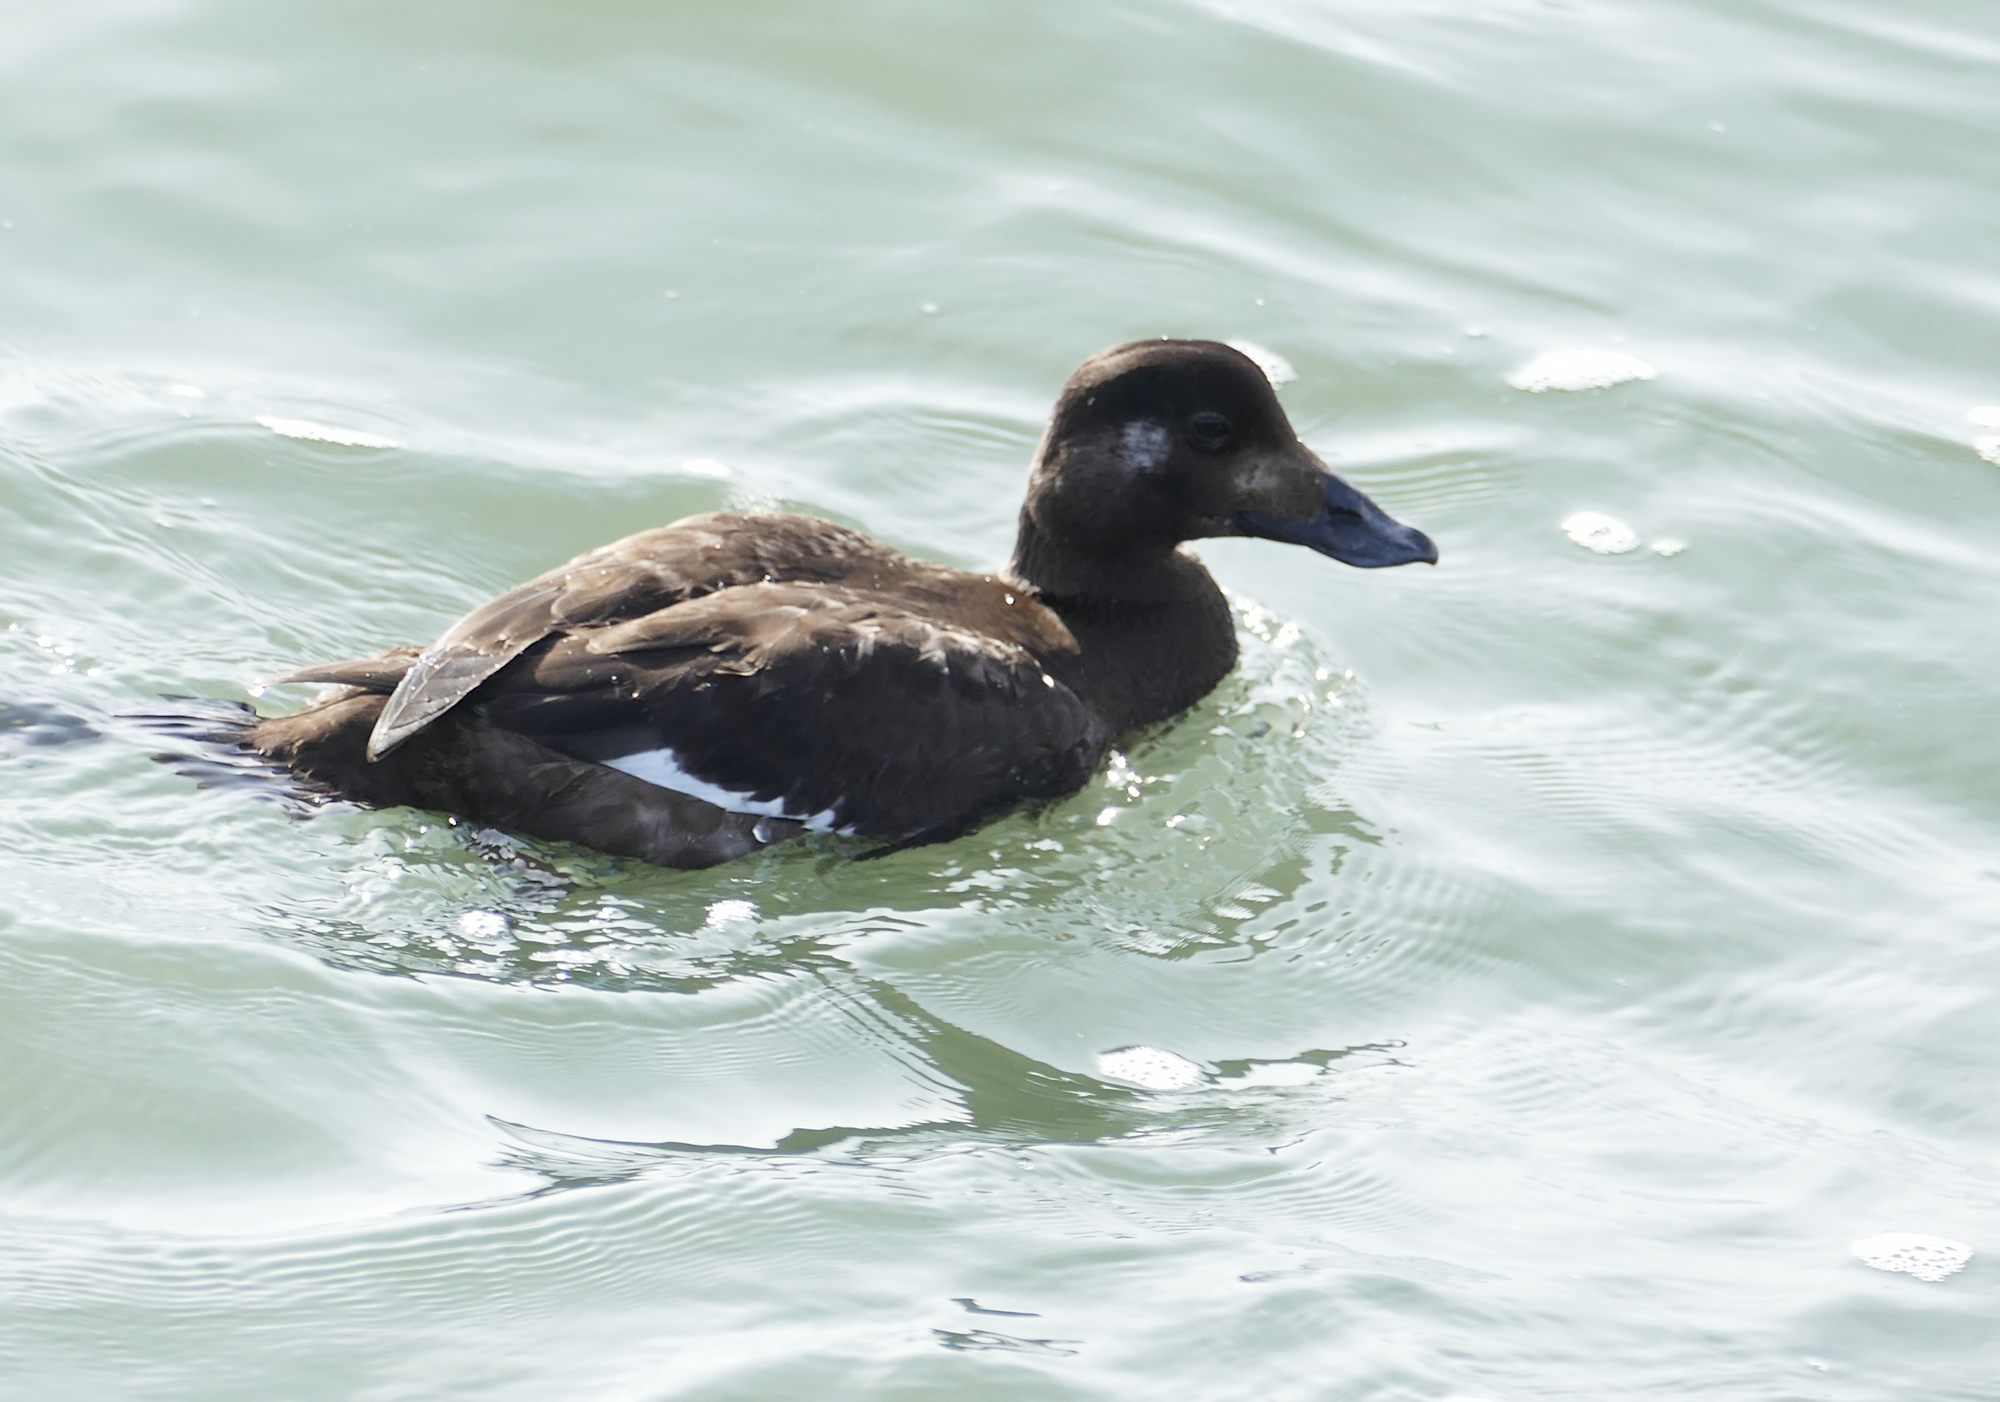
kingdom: Animalia
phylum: Chordata
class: Aves
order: Anseriformes
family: Anatidae
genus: Melanitta
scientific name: Melanitta deglandi
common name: White-winged scoter
